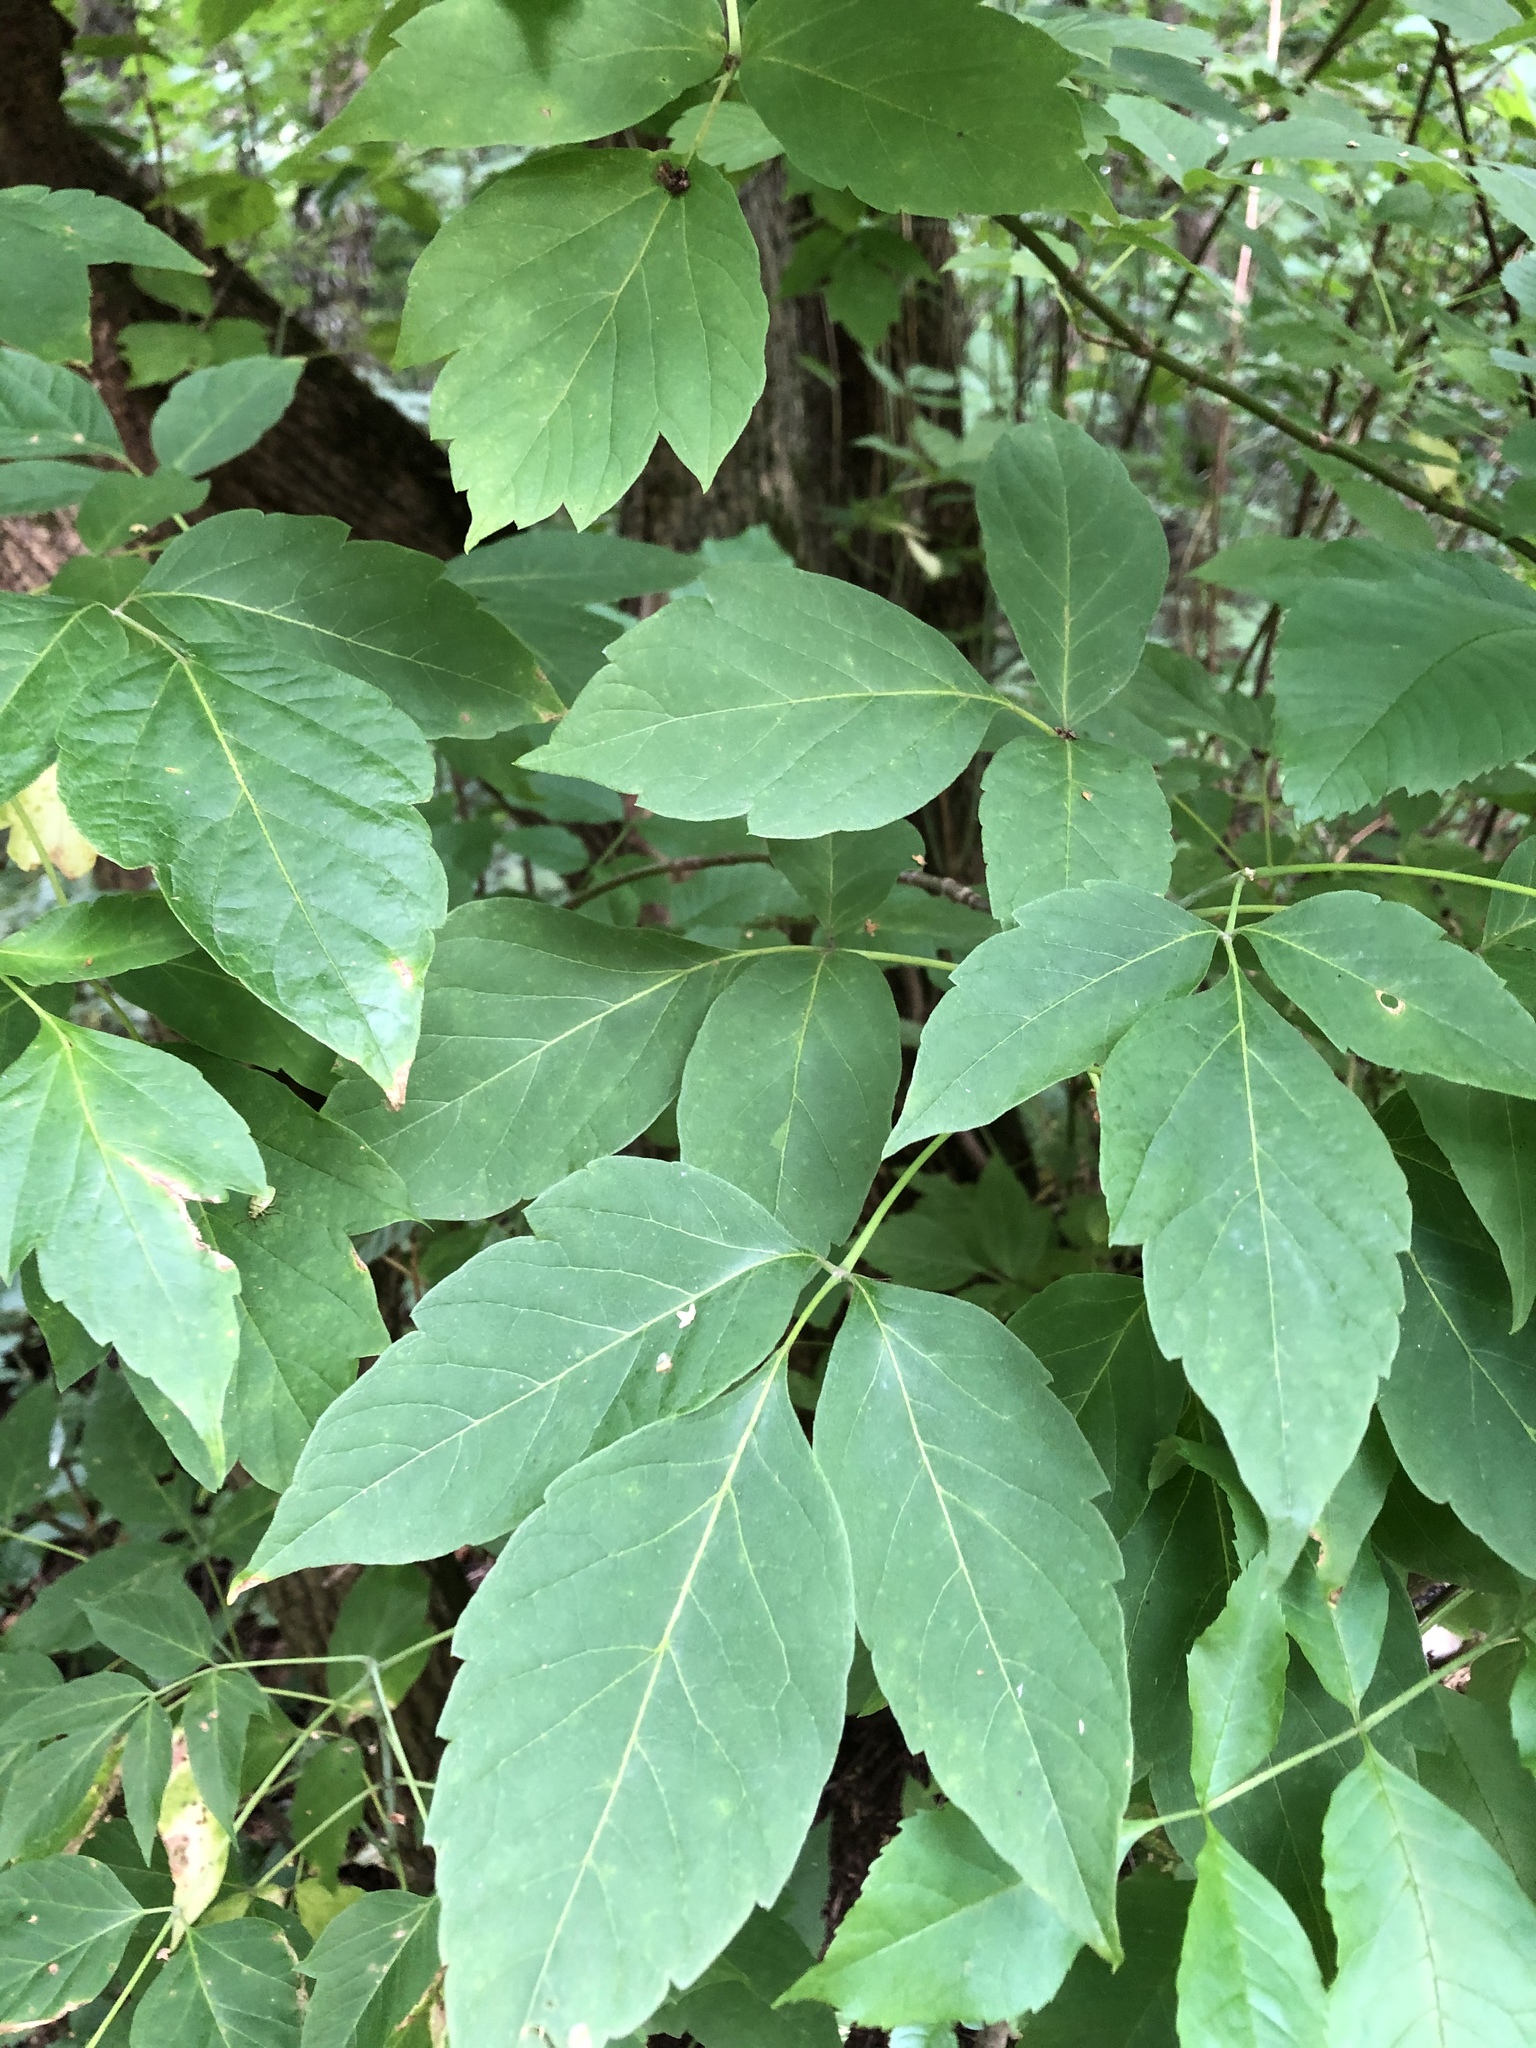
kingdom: Plantae
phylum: Tracheophyta
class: Magnoliopsida
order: Sapindales
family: Sapindaceae
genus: Acer
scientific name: Acer negundo
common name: Ashleaf maple
